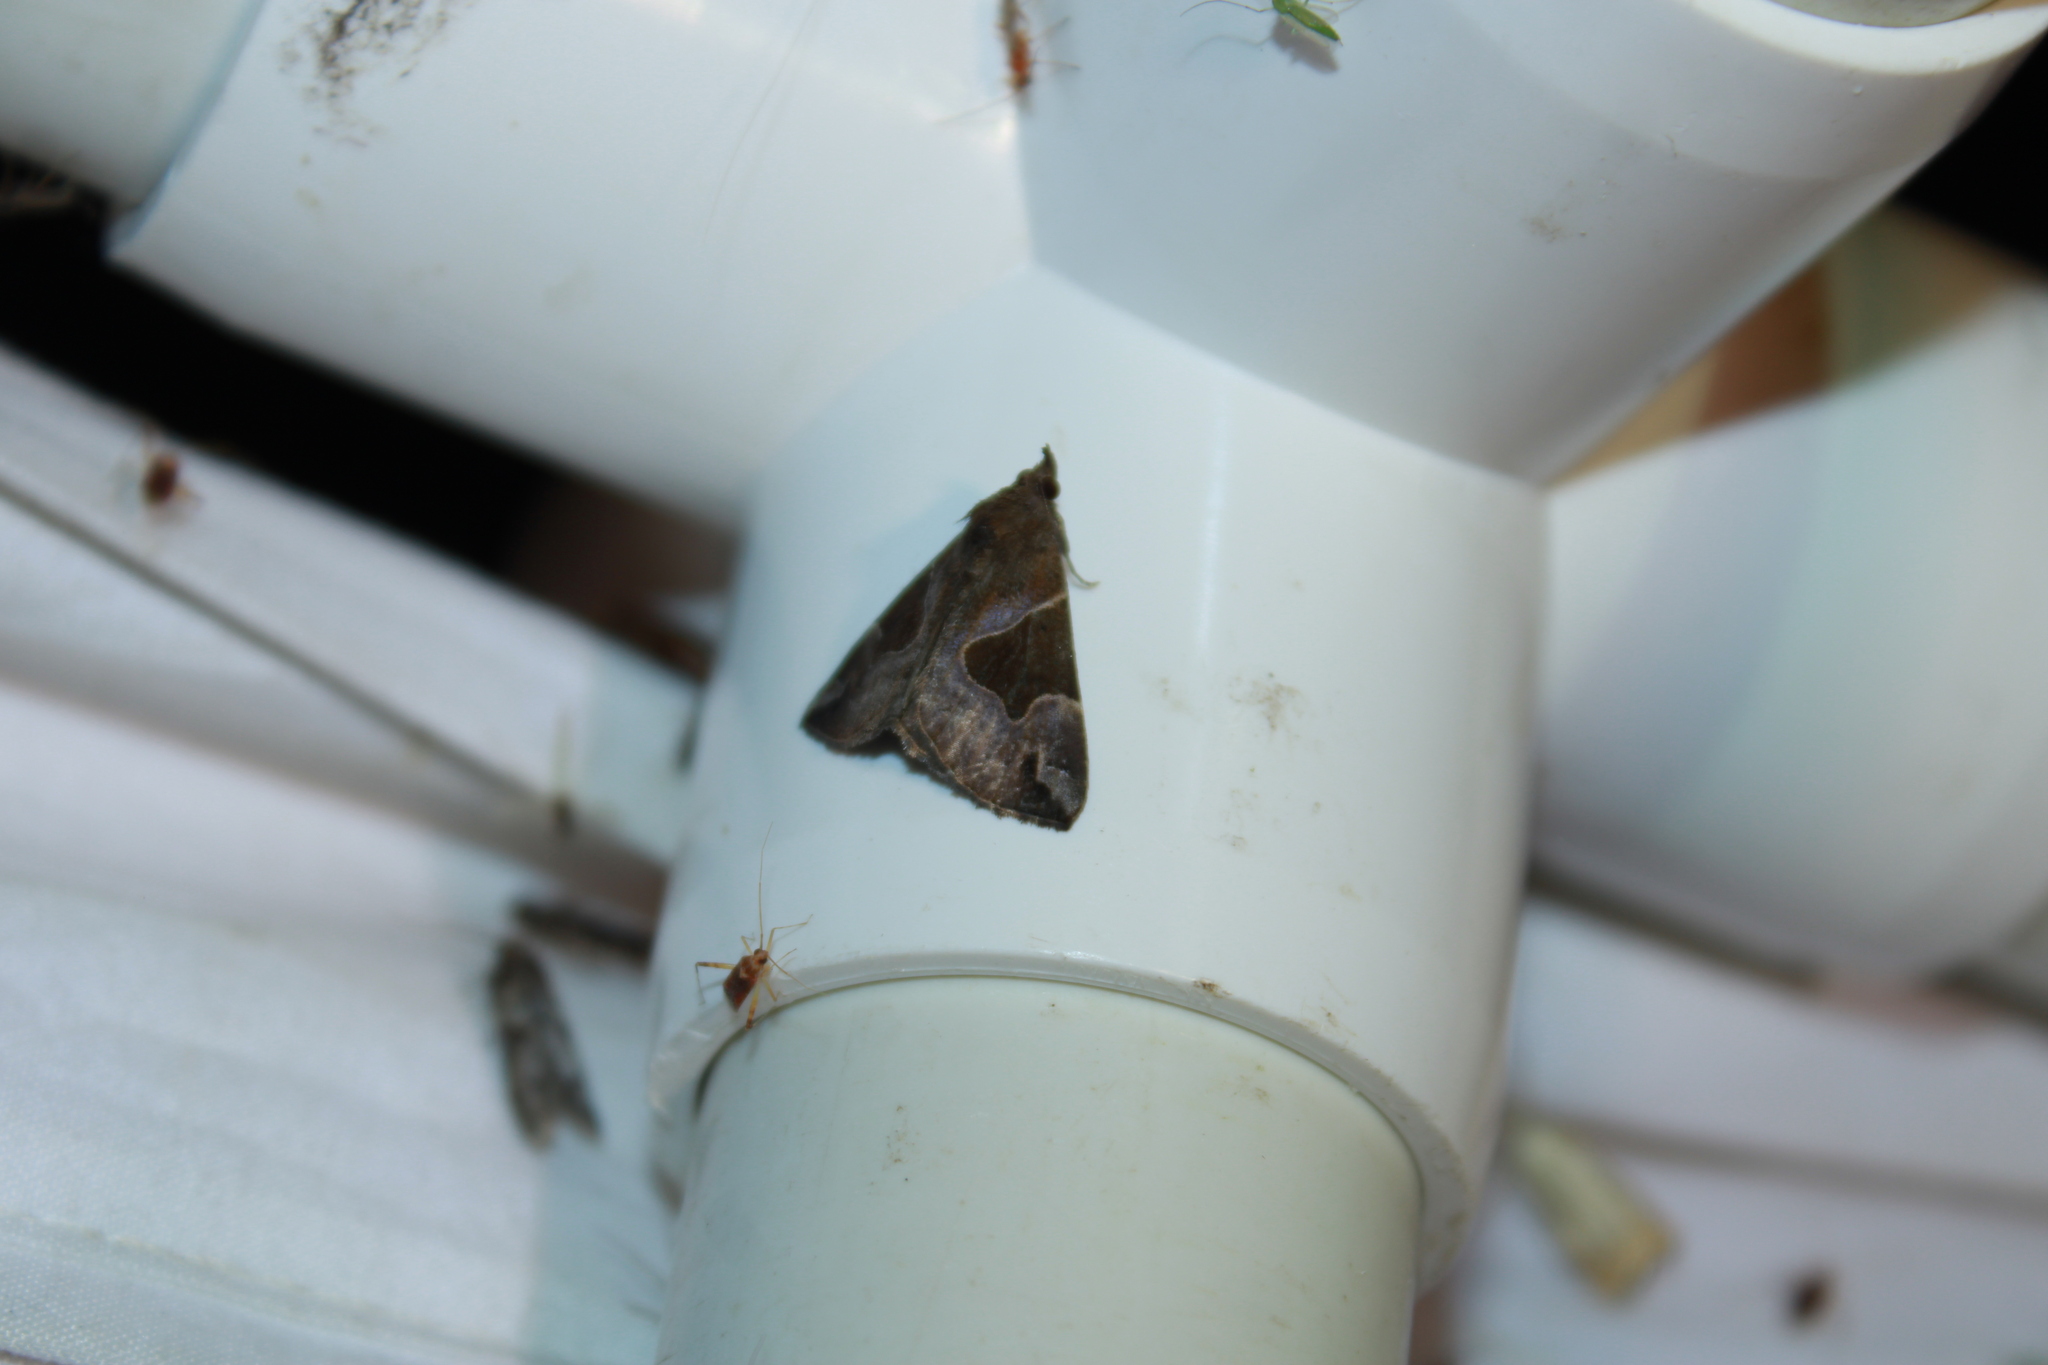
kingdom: Animalia
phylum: Arthropoda
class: Insecta
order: Lepidoptera
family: Erebidae
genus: Hypena
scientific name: Hypena manalis
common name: Flowing-line bomolocha moth
